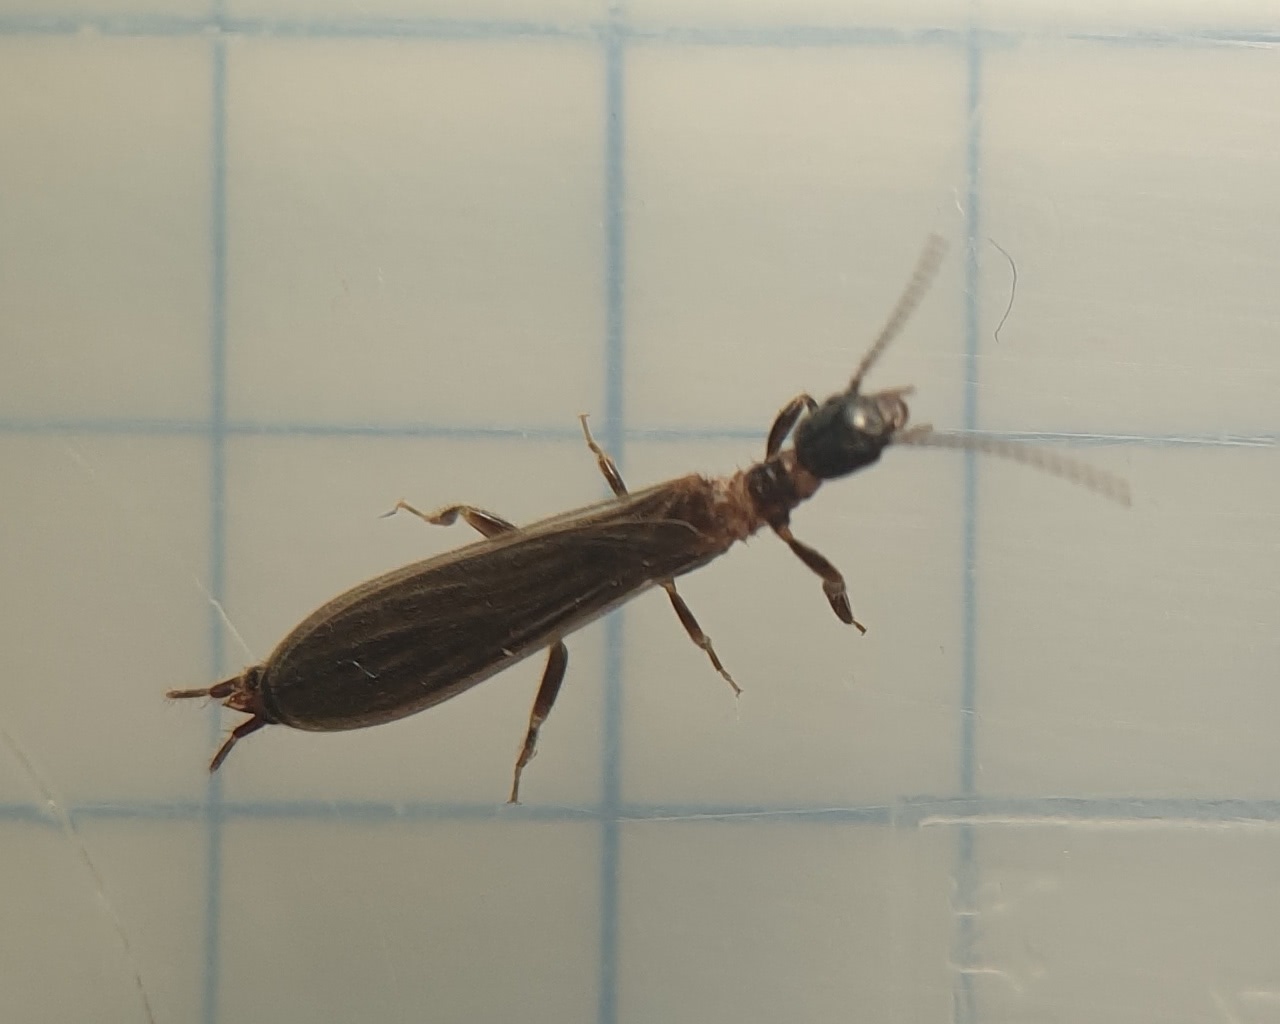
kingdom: Animalia
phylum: Arthropoda
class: Insecta
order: Embioptera
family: Oligotomidae
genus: Oligotoma
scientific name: Oligotoma nigra
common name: Black webspinner
